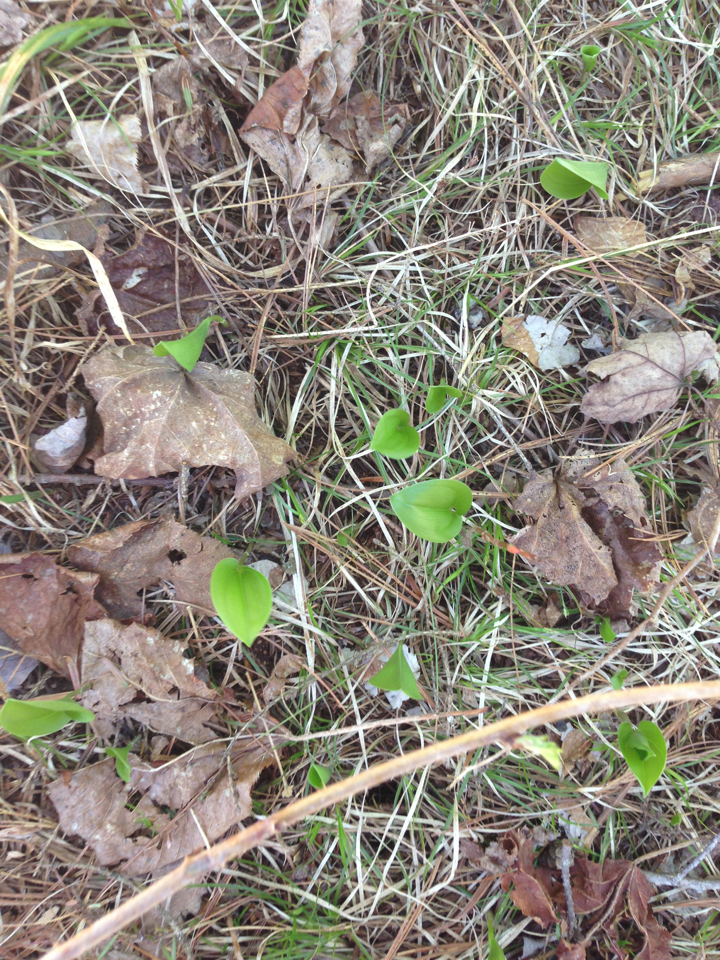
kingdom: Plantae
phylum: Tracheophyta
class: Liliopsida
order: Asparagales
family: Asparagaceae
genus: Maianthemum
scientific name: Maianthemum canadense
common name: False lily-of-the-valley
